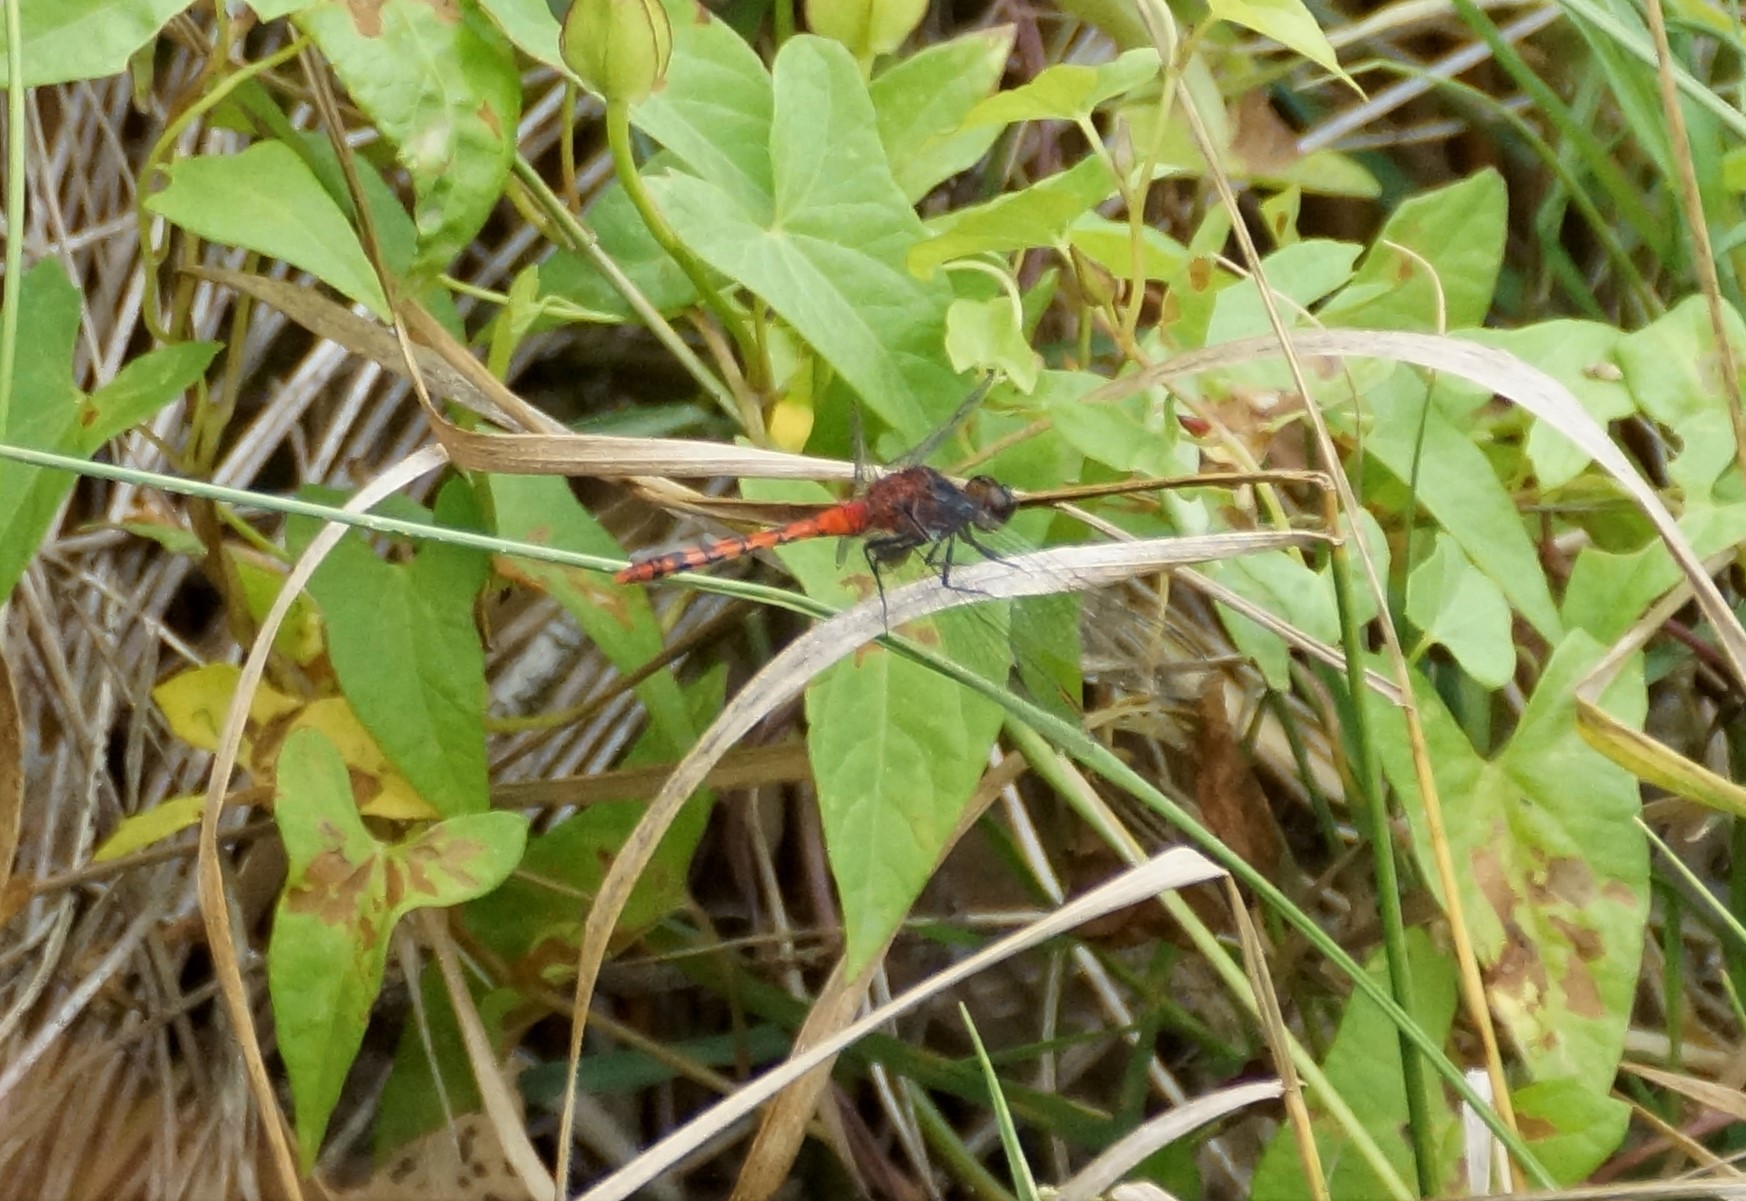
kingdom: Animalia
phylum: Arthropoda
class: Insecta
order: Odonata
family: Libellulidae
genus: Diplacodes
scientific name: Diplacodes melanopsis
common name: Black-faced percher
